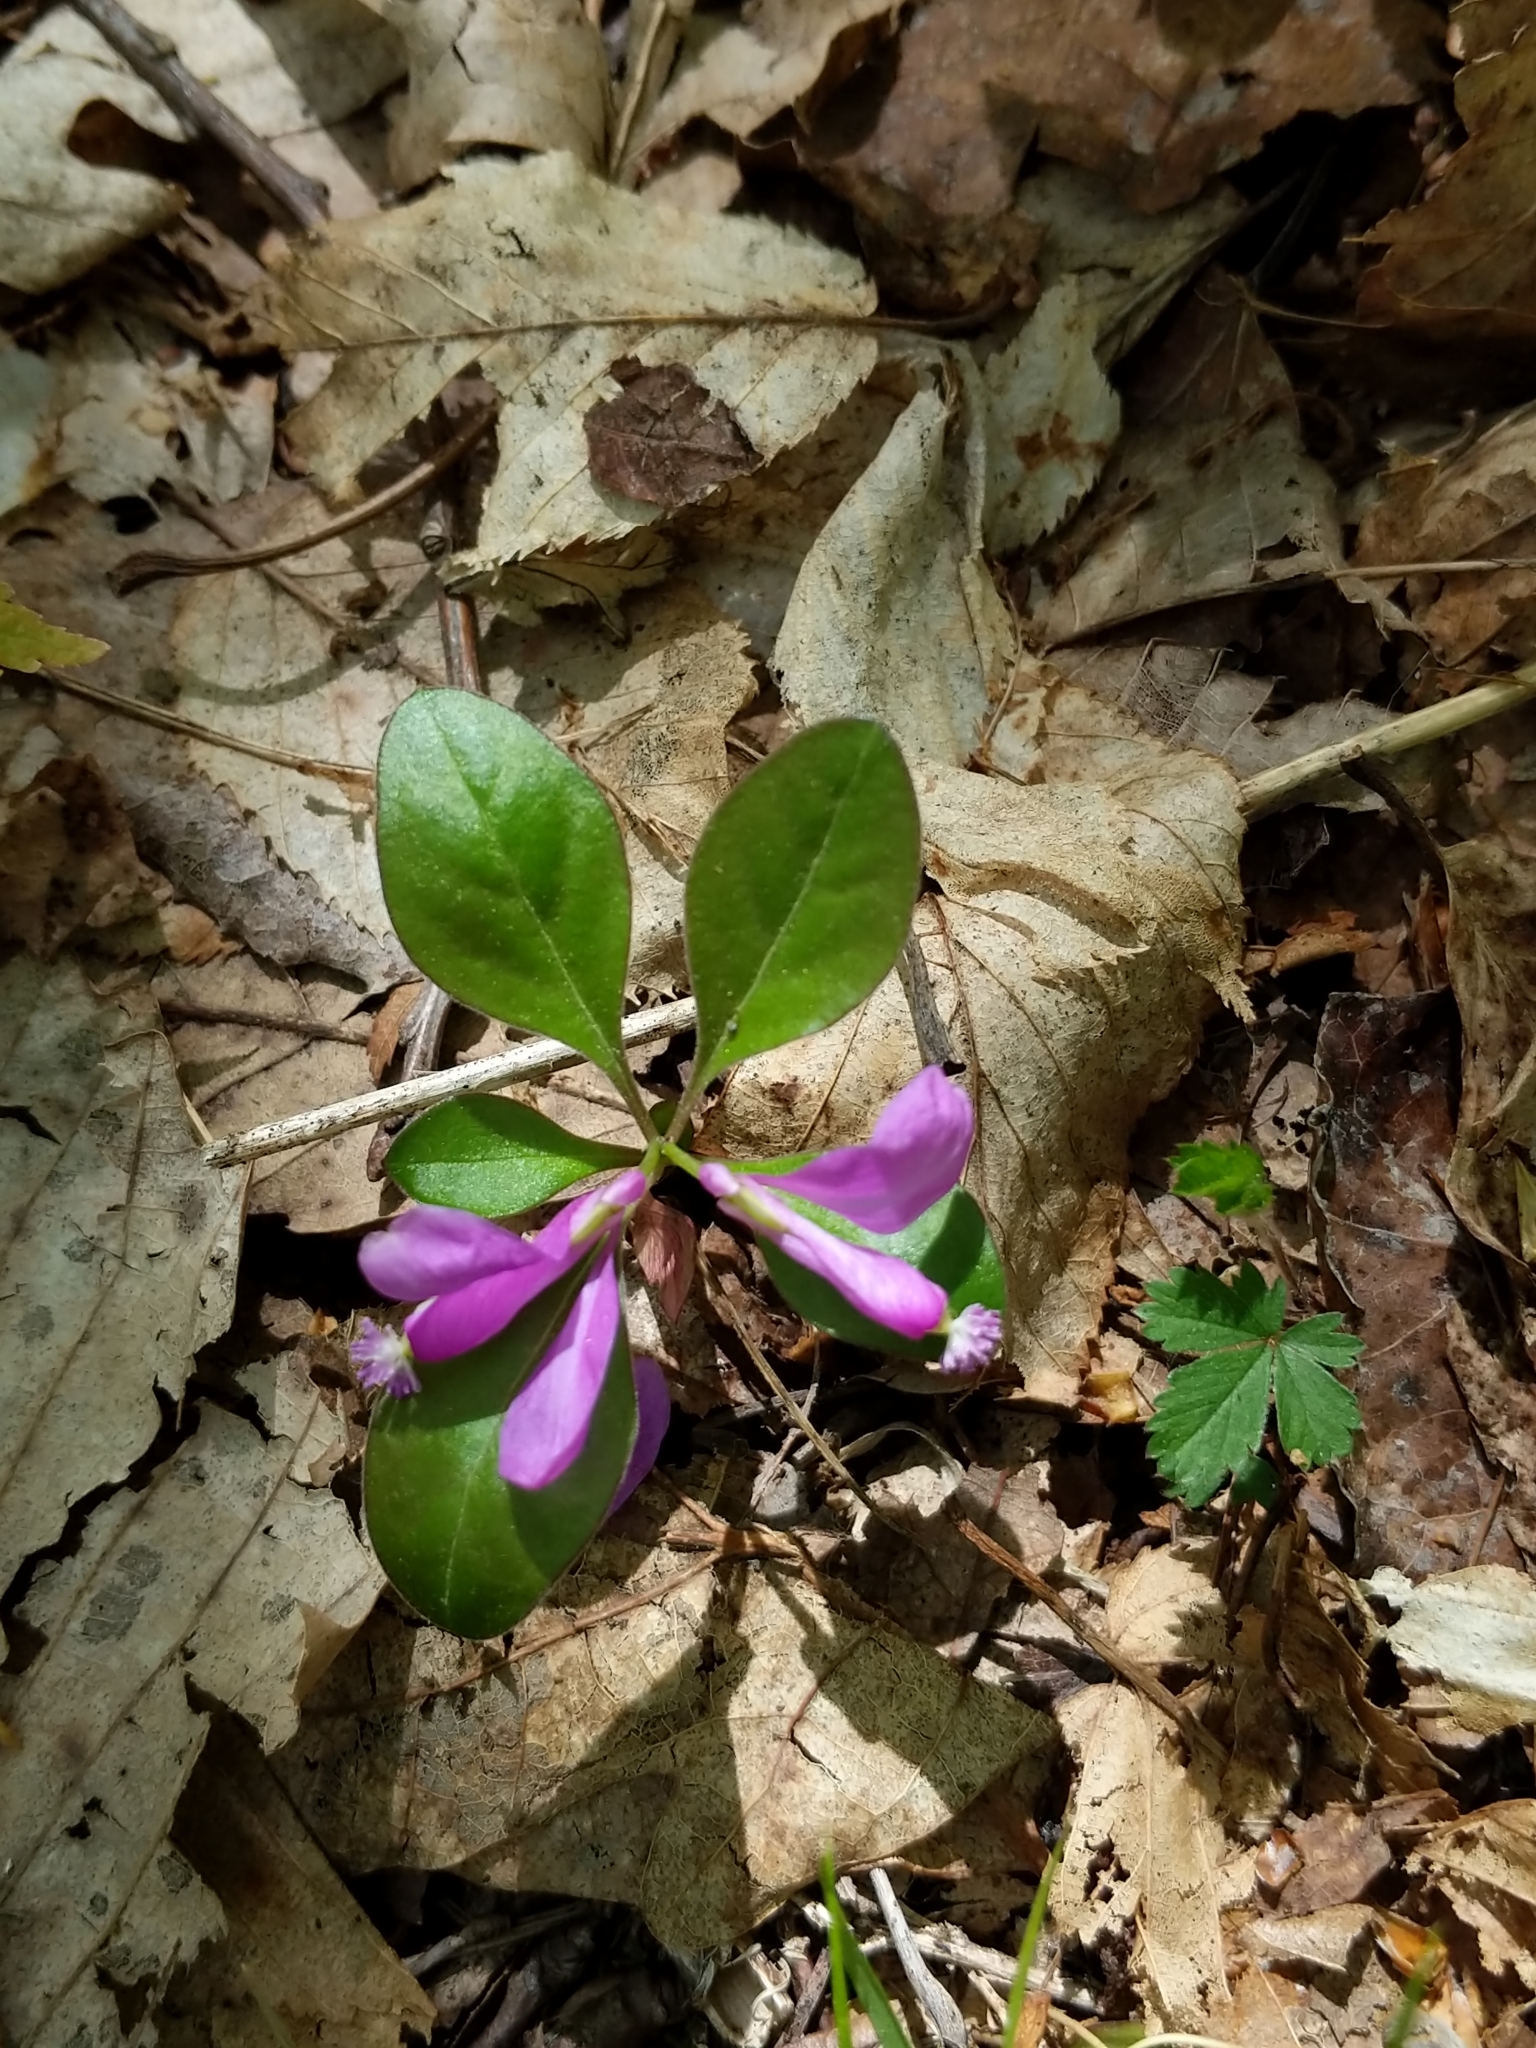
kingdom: Plantae
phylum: Tracheophyta
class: Magnoliopsida
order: Fabales
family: Polygalaceae
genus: Polygaloides
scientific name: Polygaloides paucifolia
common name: Bird-on-the-wing
